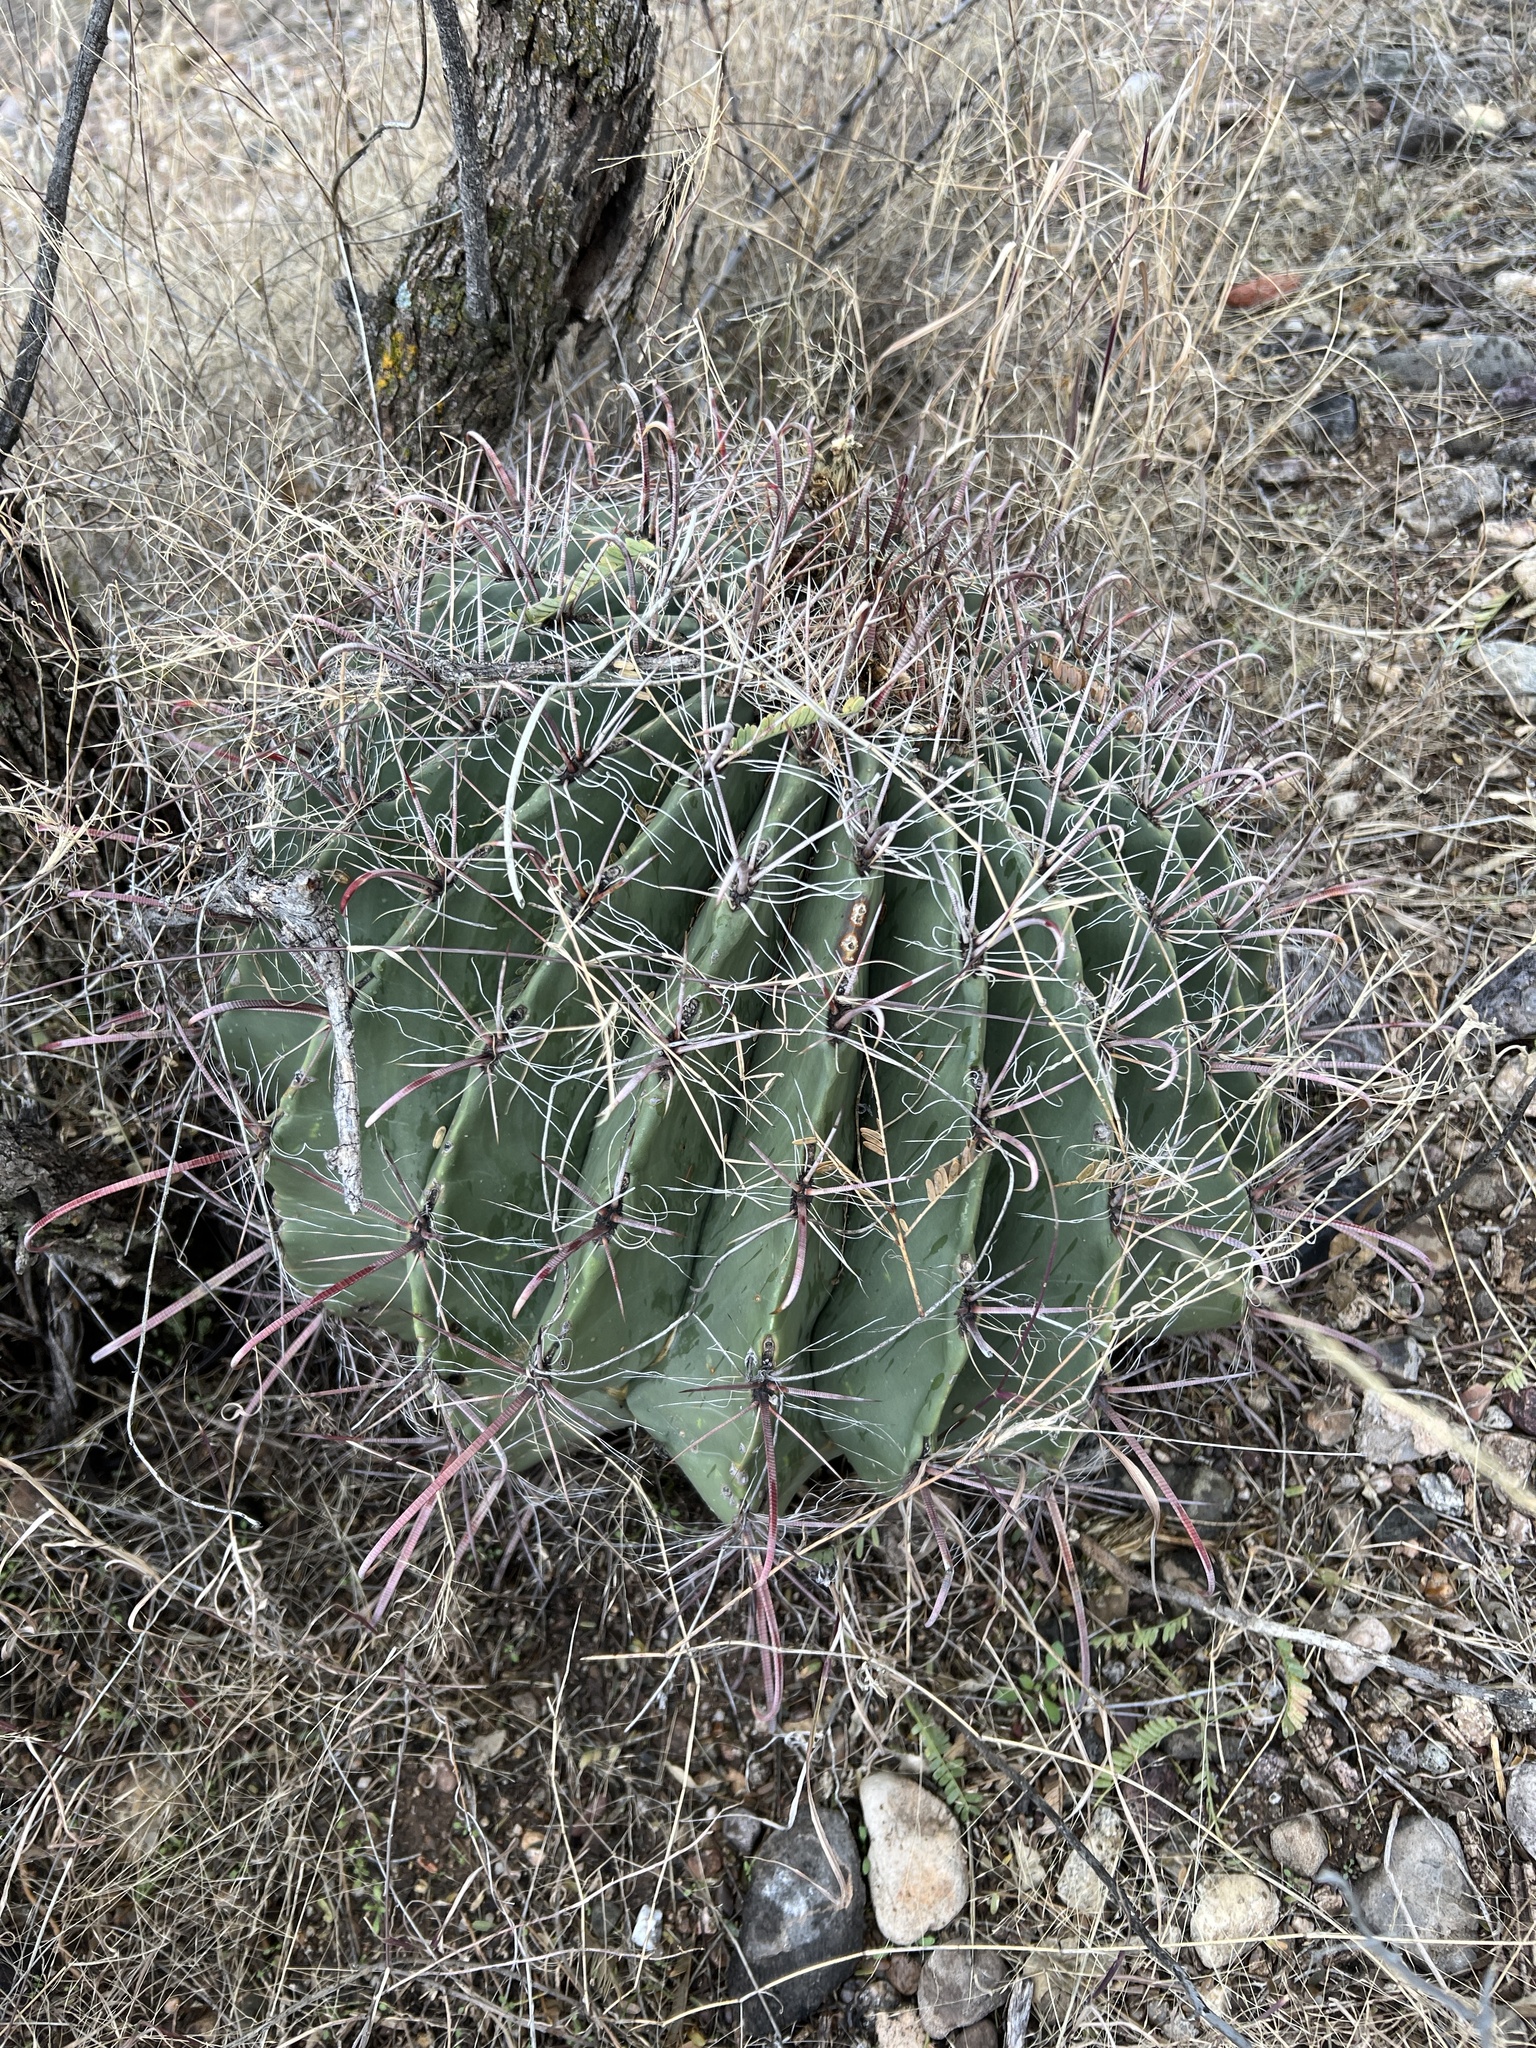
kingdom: Plantae
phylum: Tracheophyta
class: Magnoliopsida
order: Caryophyllales
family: Cactaceae
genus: Ferocactus
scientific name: Ferocactus wislizeni
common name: Candy barrel cactus
